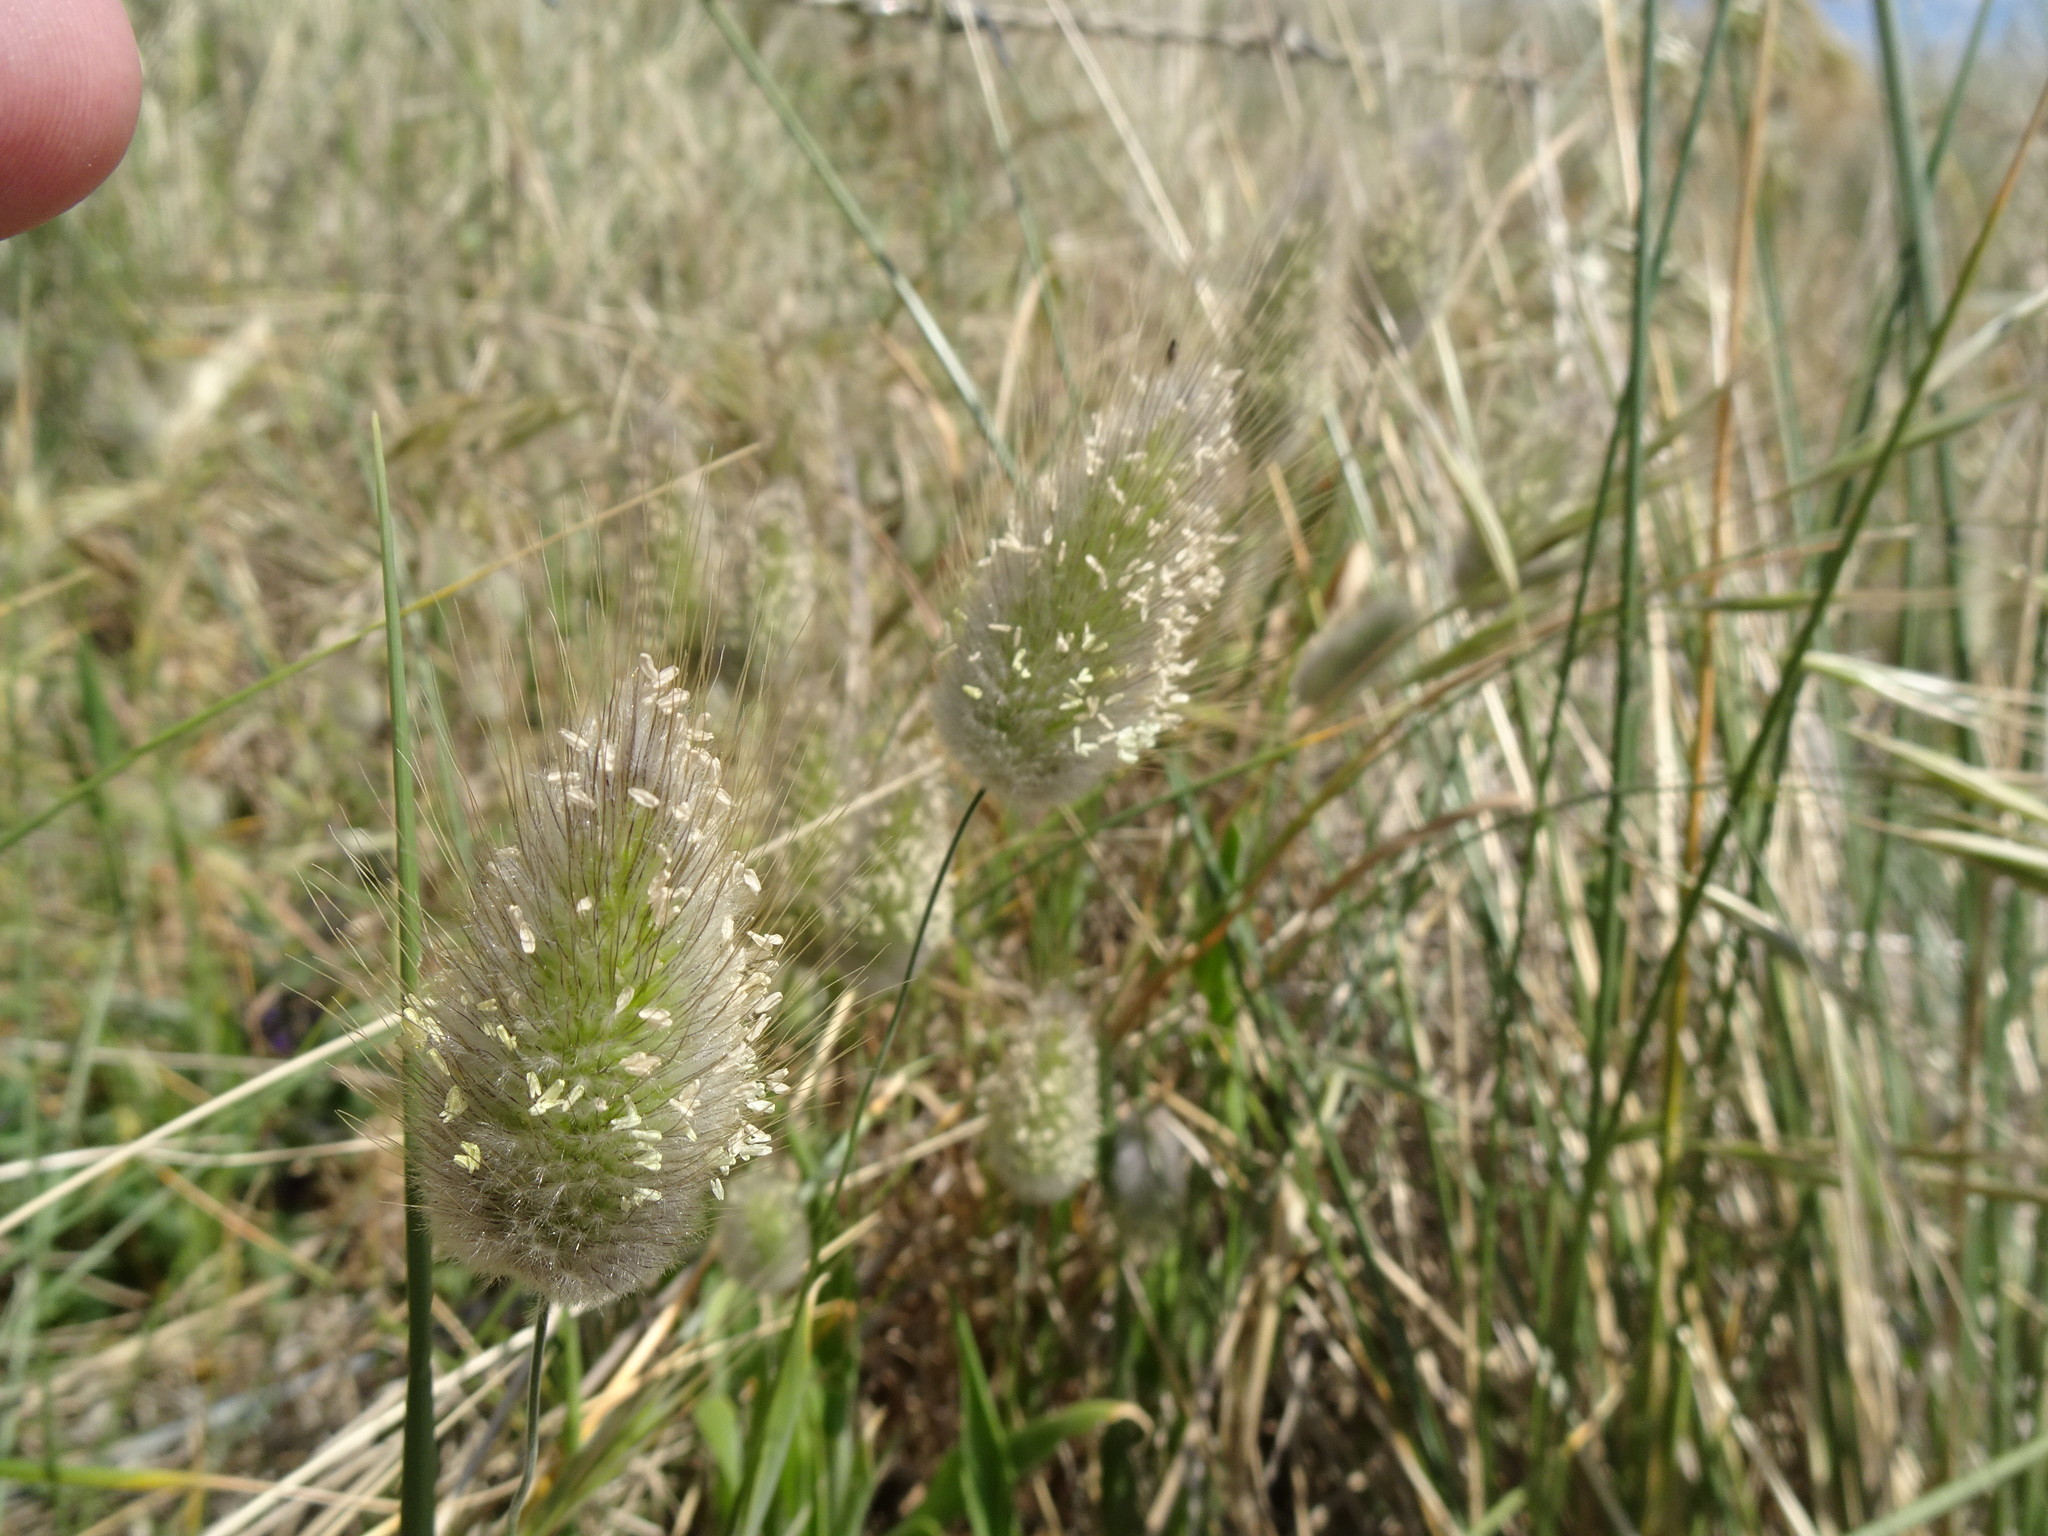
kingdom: Plantae
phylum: Tracheophyta
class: Liliopsida
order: Poales
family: Poaceae
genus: Lagurus
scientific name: Lagurus ovatus
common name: Hare's-tail
